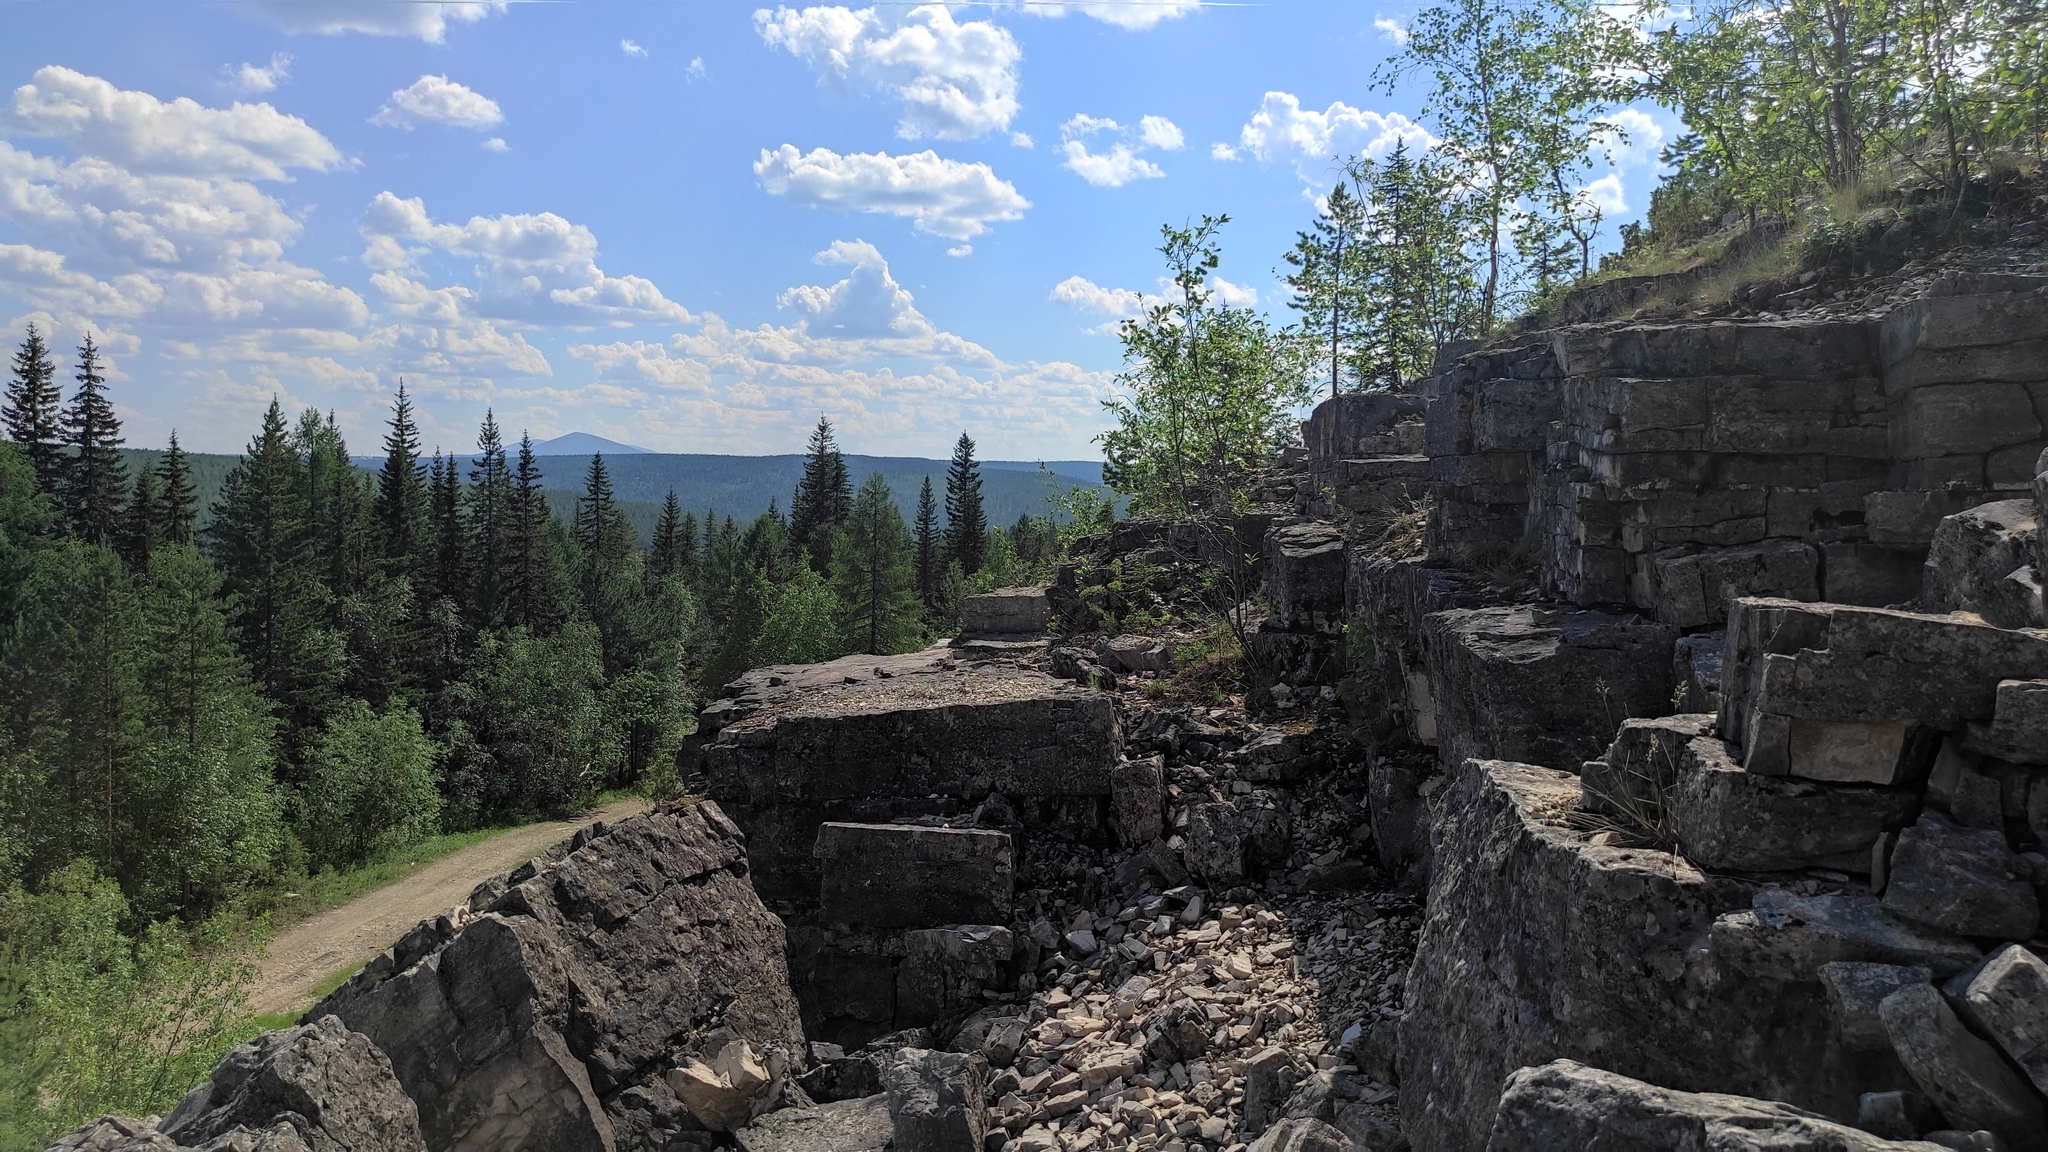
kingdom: Plantae
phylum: Tracheophyta
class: Pinopsida
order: Pinales
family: Pinaceae
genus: Picea
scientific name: Picea obovata
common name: Siberian spruce
